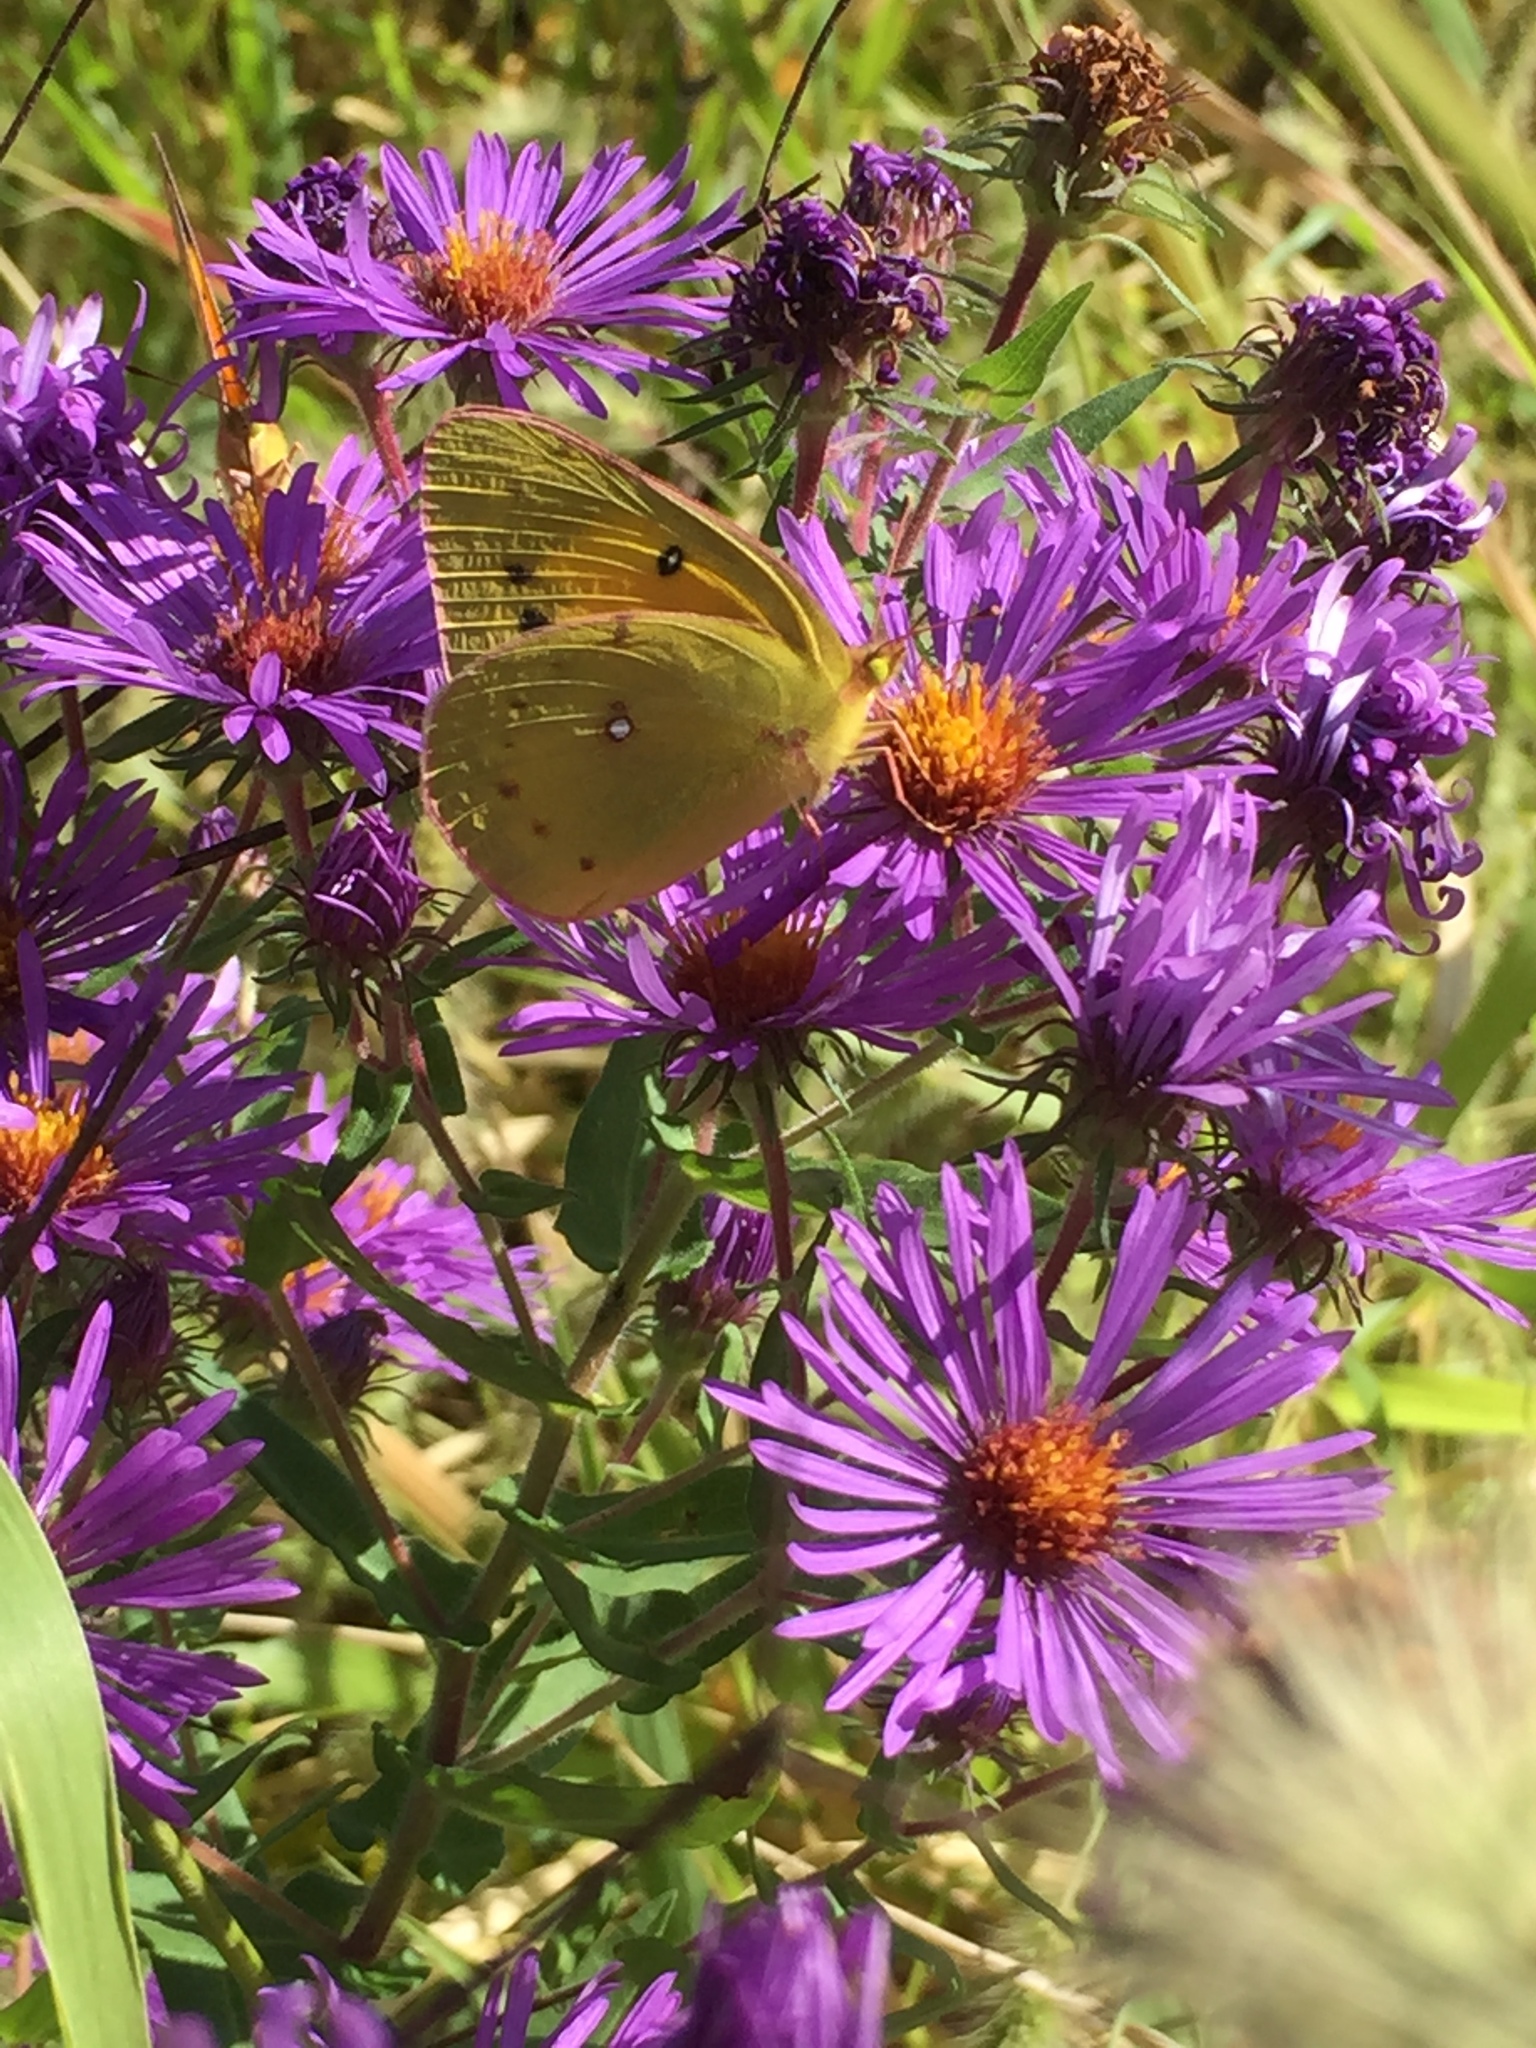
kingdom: Animalia
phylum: Arthropoda
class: Insecta
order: Lepidoptera
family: Pieridae
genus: Colias
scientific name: Colias eurytheme
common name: Alfalfa butterfly
